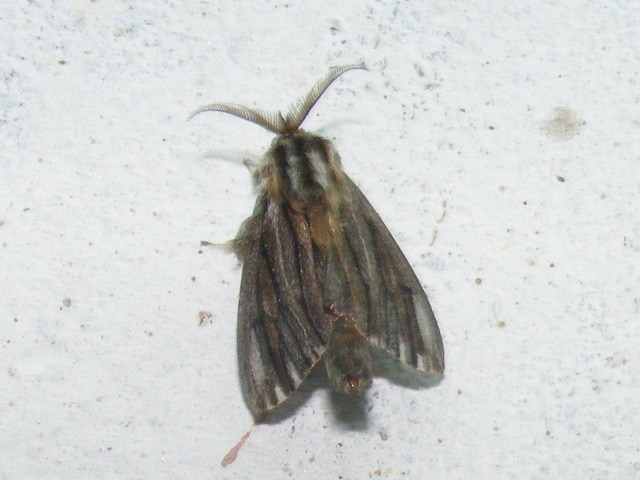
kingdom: Animalia
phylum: Arthropoda
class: Insecta
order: Lepidoptera
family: Psychidae
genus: Eumeta
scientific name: Eumeta cramerii
